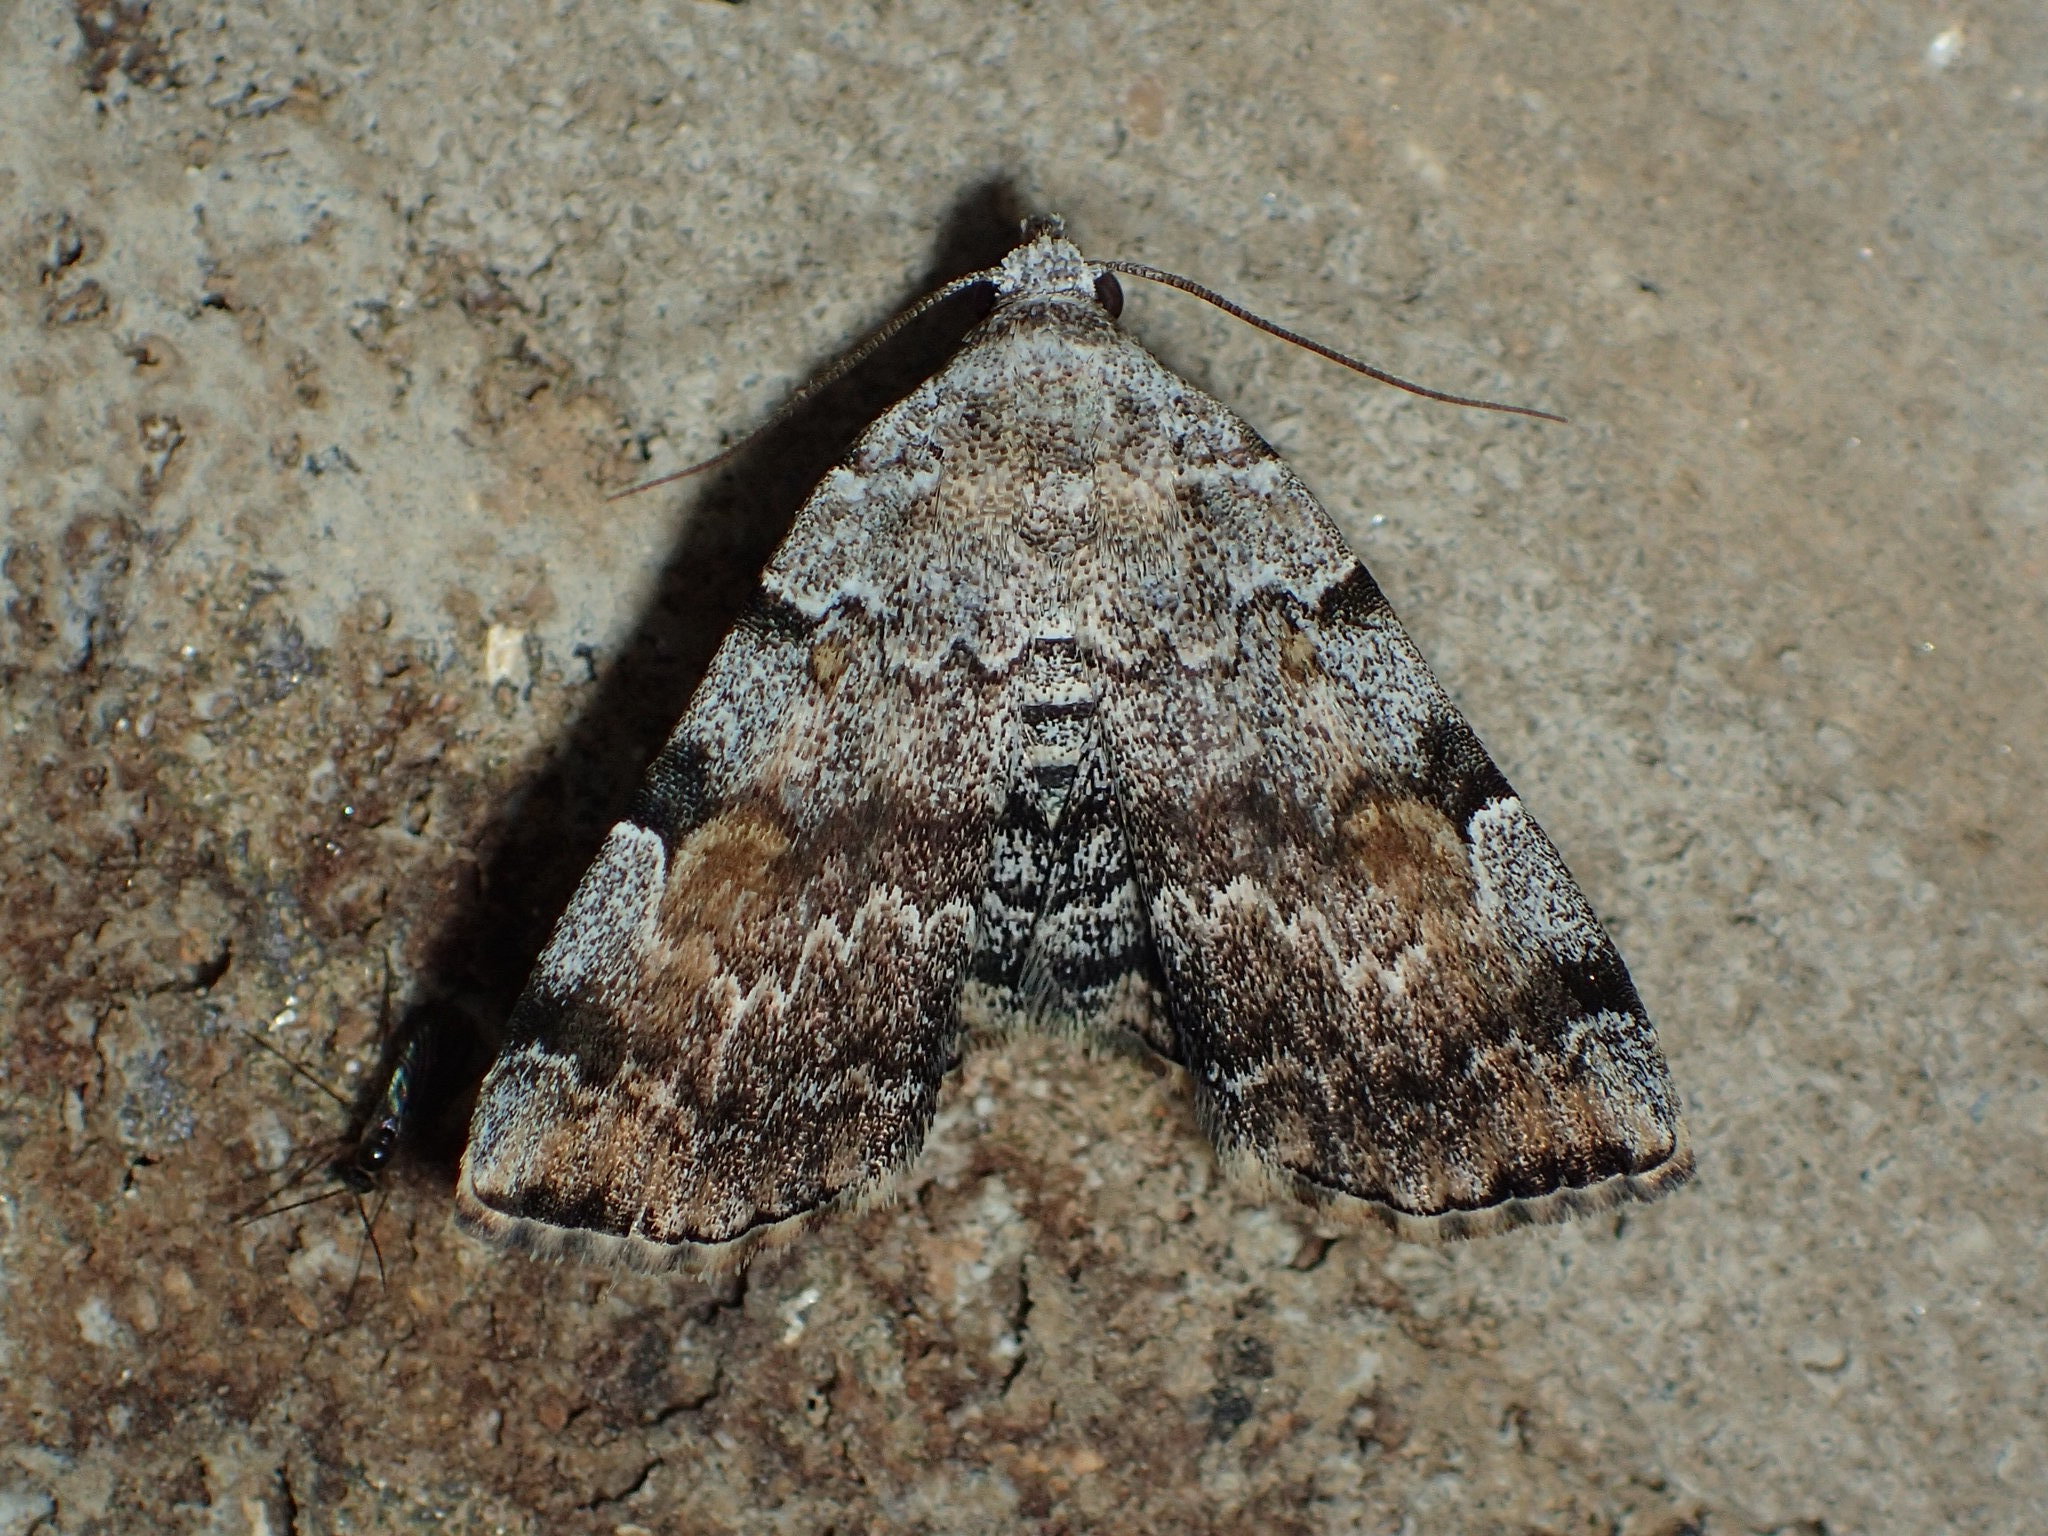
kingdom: Animalia
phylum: Arthropoda
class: Insecta
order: Lepidoptera
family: Erebidae
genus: Idia
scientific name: Idia americalis
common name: American idia moth
